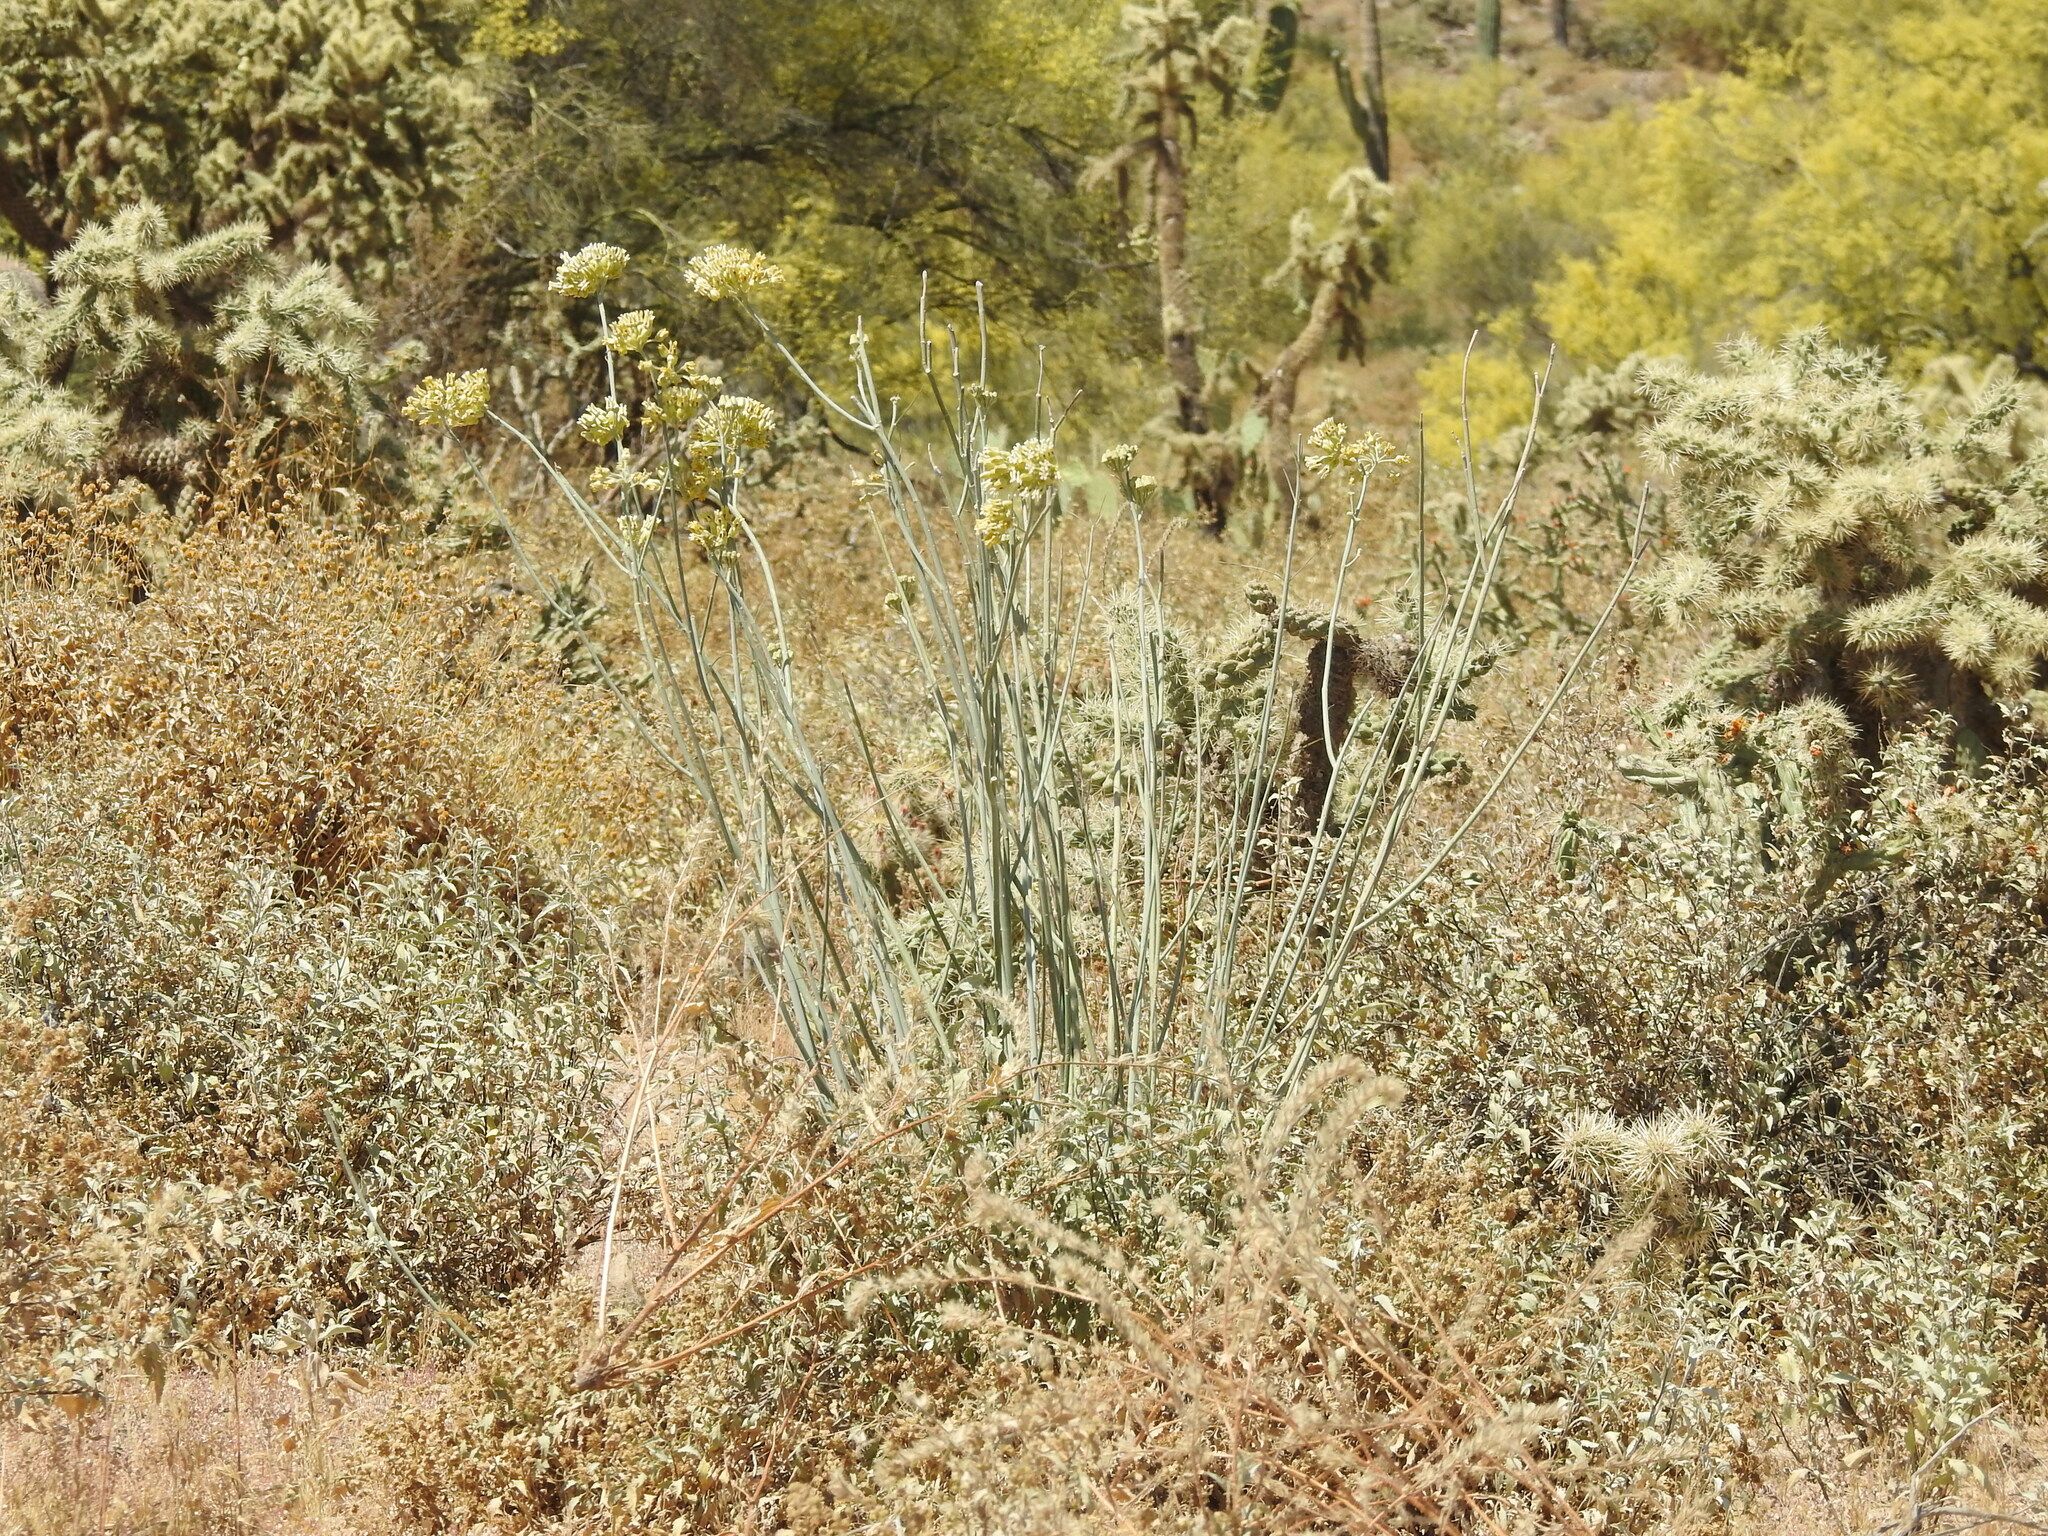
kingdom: Plantae
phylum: Tracheophyta
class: Magnoliopsida
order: Gentianales
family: Apocynaceae
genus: Asclepias
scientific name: Asclepias subulata
